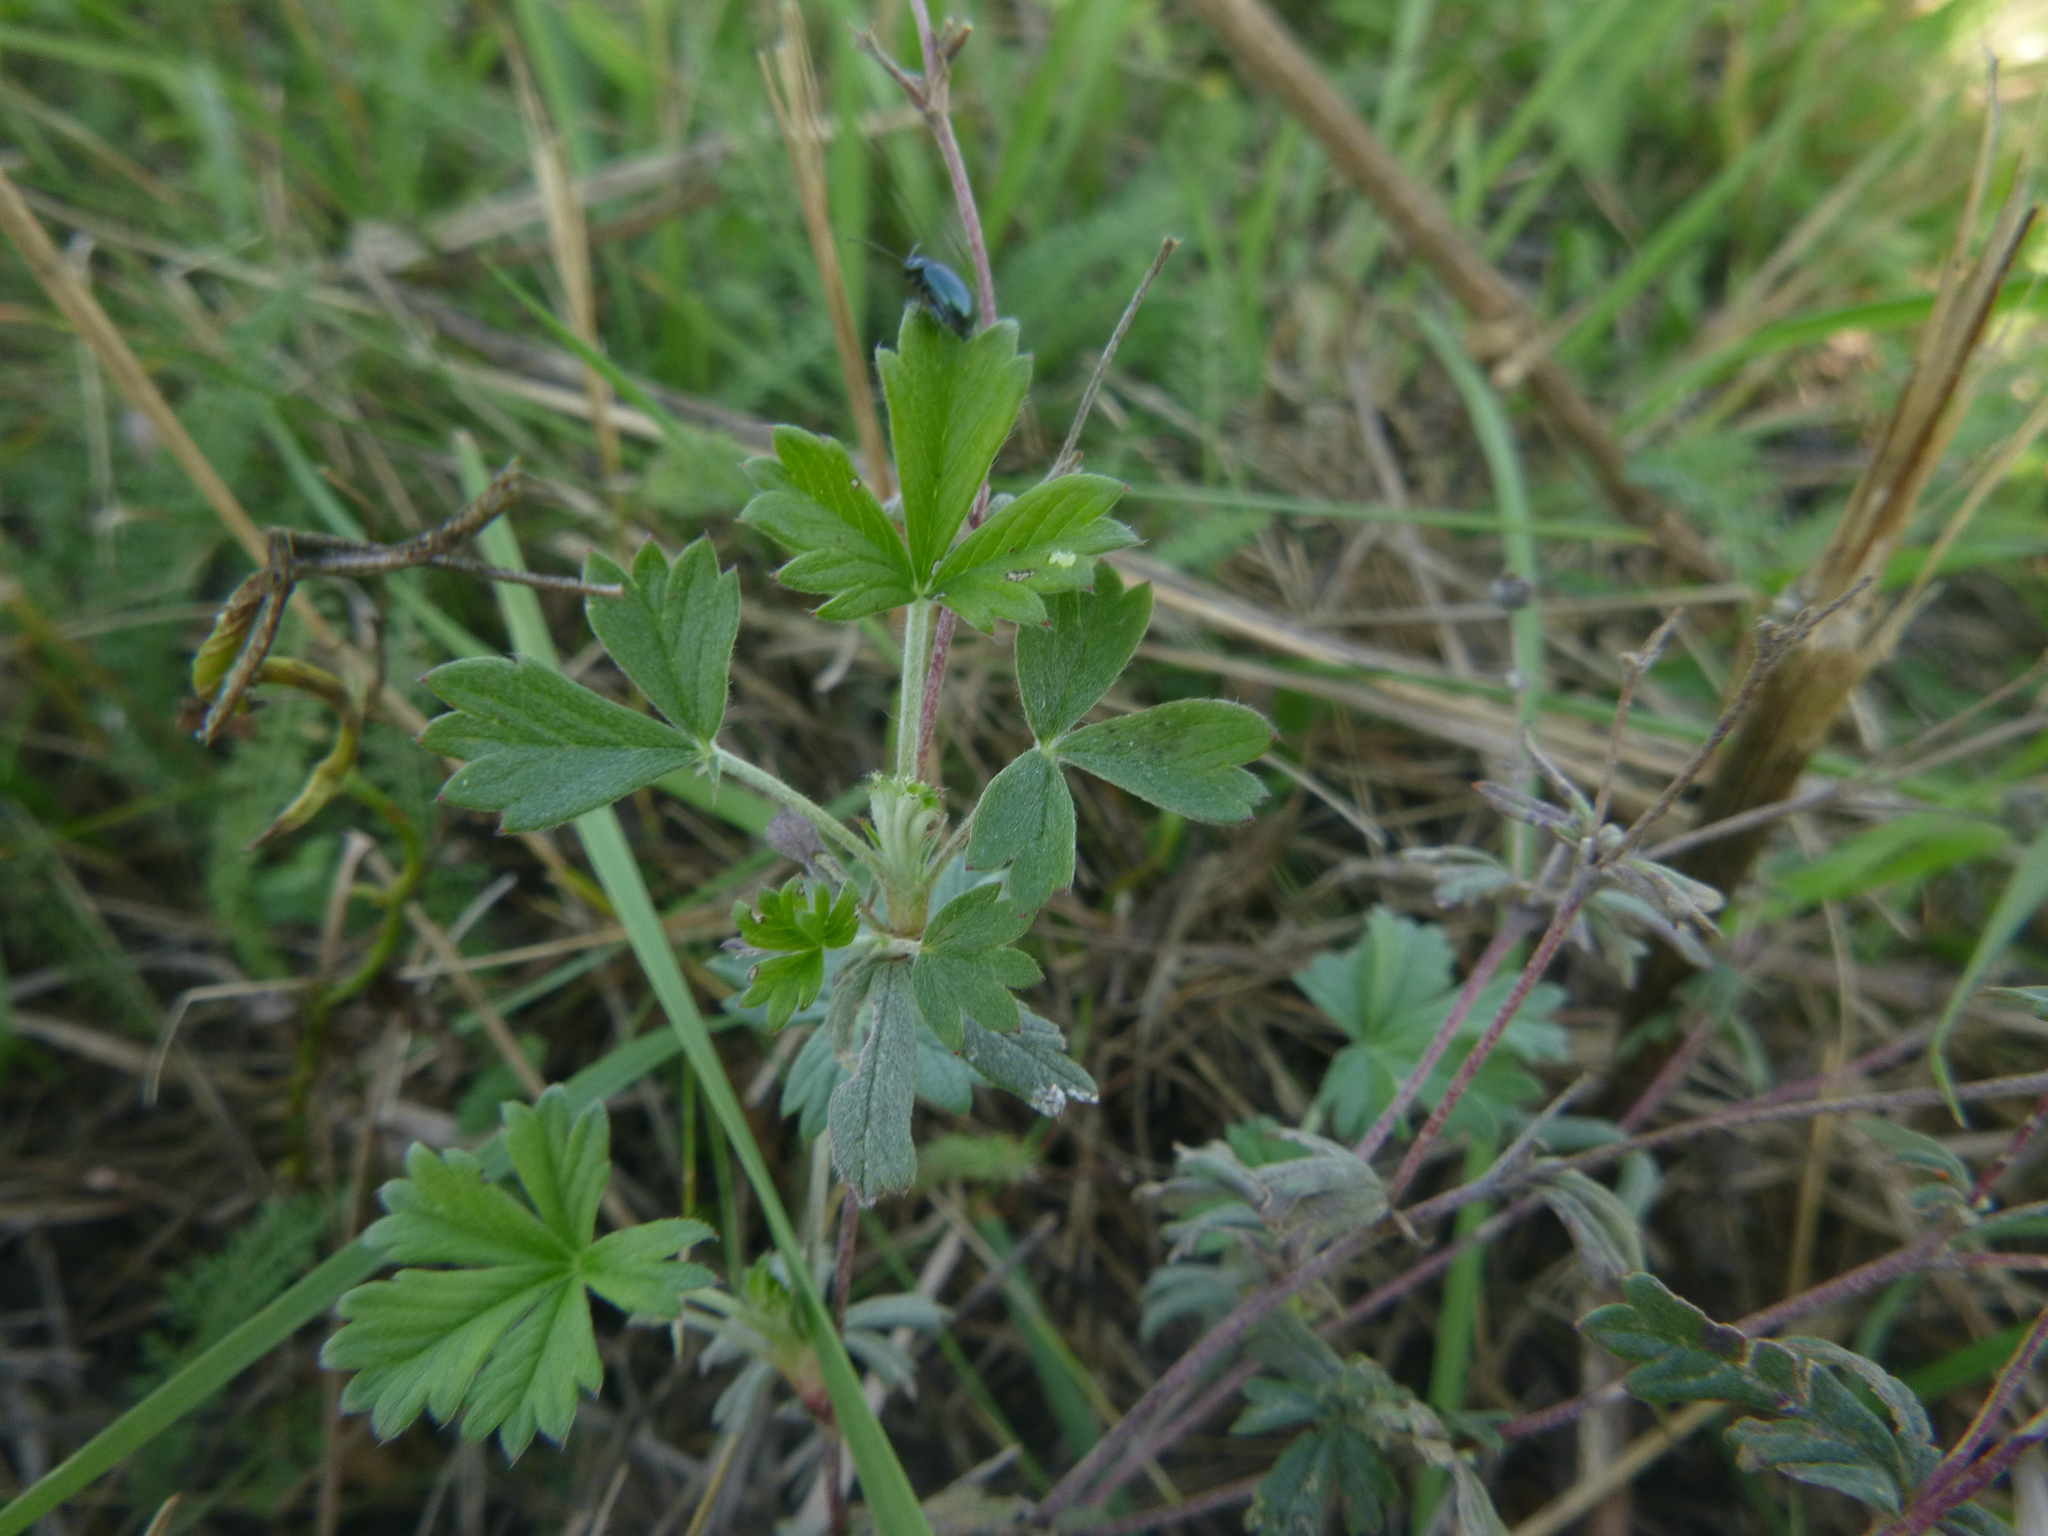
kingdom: Plantae
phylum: Tracheophyta
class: Magnoliopsida
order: Rosales
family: Rosaceae
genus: Potentilla
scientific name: Potentilla argentea
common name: Hoary cinquefoil
